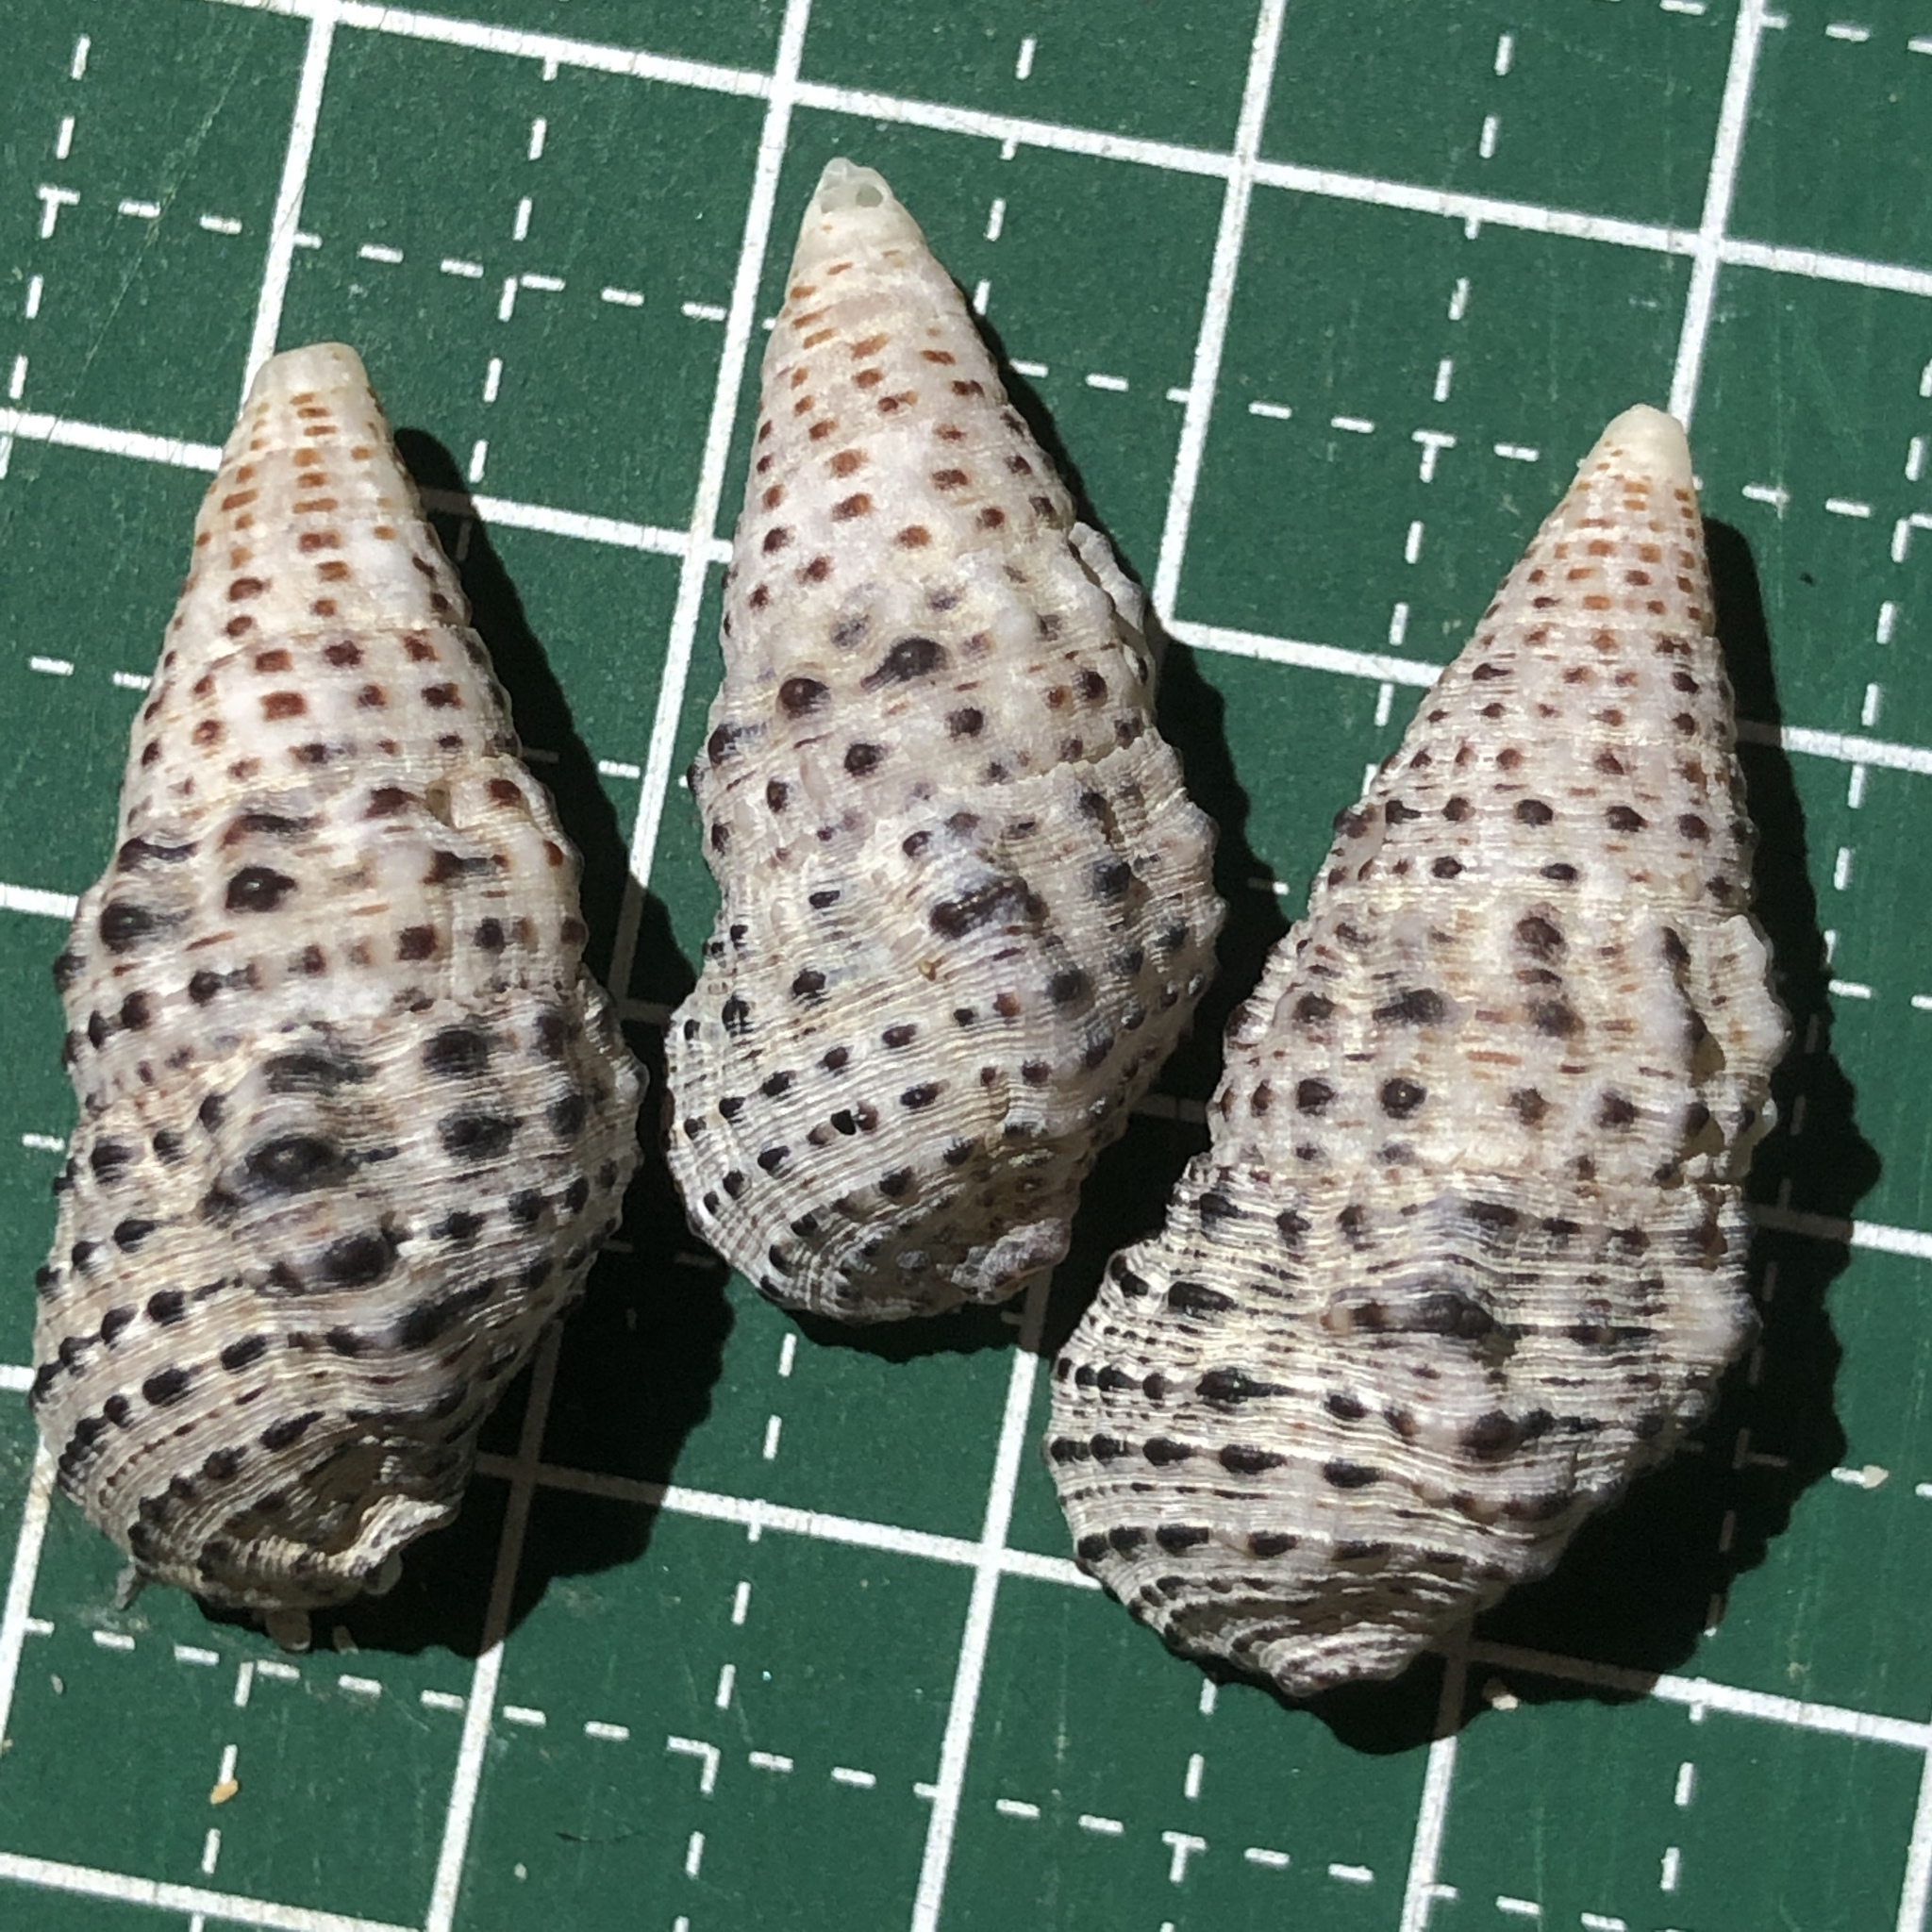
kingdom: Animalia
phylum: Mollusca
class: Gastropoda
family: Cerithiidae
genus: Clypeomorus
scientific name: Clypeomorus batillariaeformis
